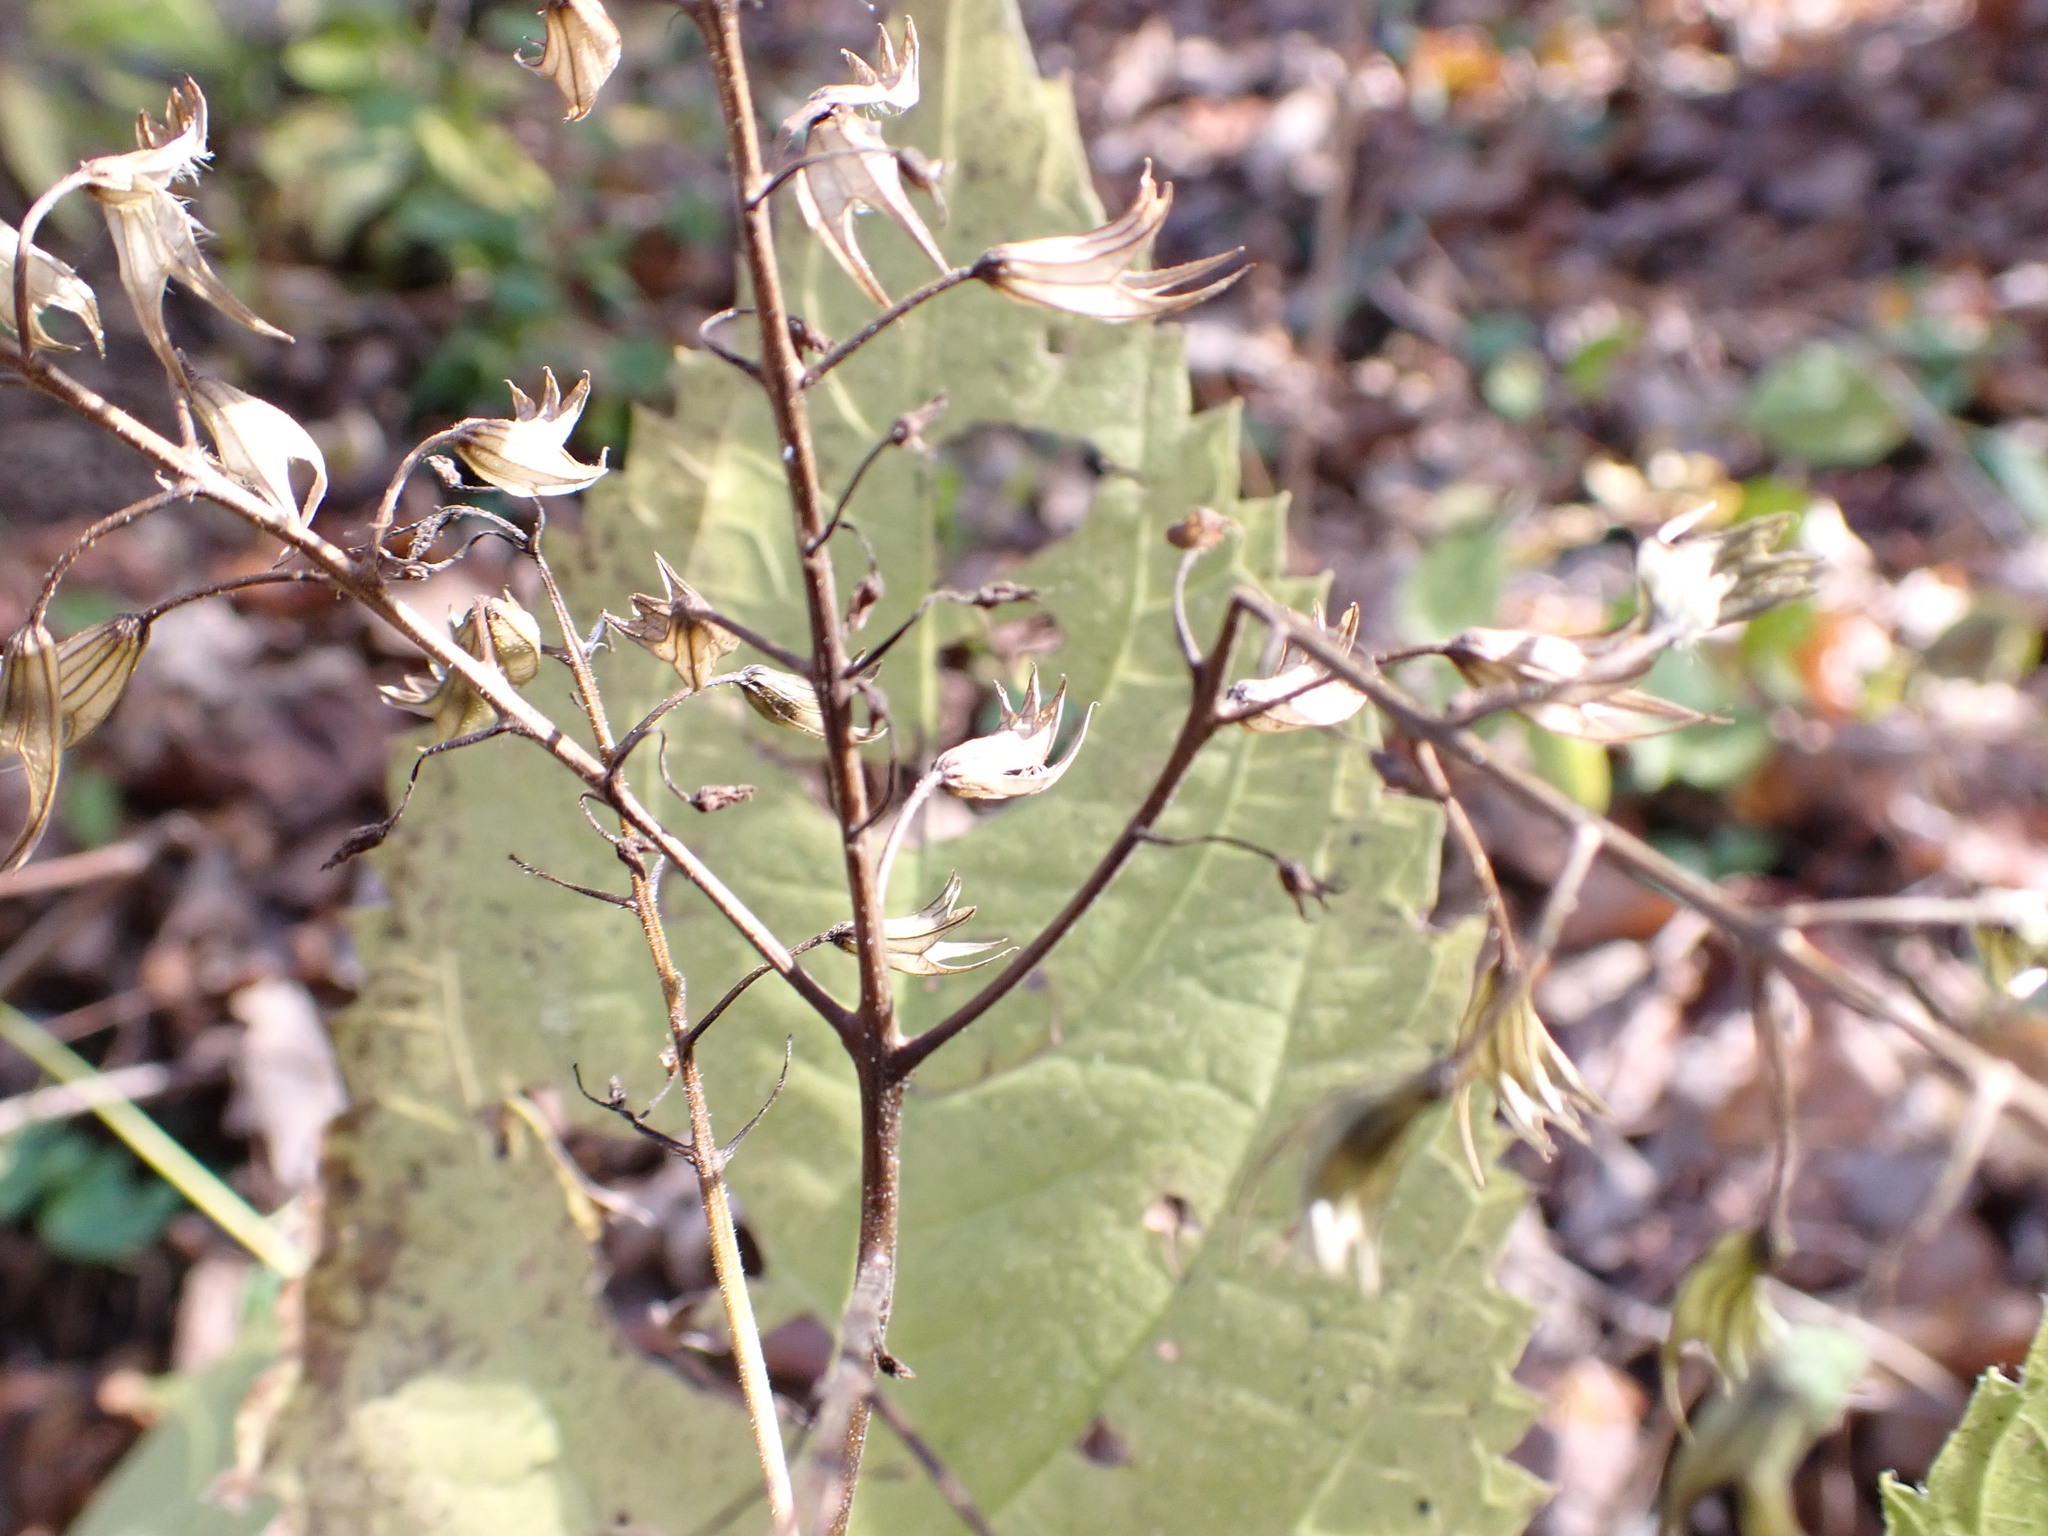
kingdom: Plantae
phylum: Tracheophyta
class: Magnoliopsida
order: Lamiales
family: Lamiaceae
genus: Collinsonia
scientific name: Collinsonia canadensis
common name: Northern horsebalm
